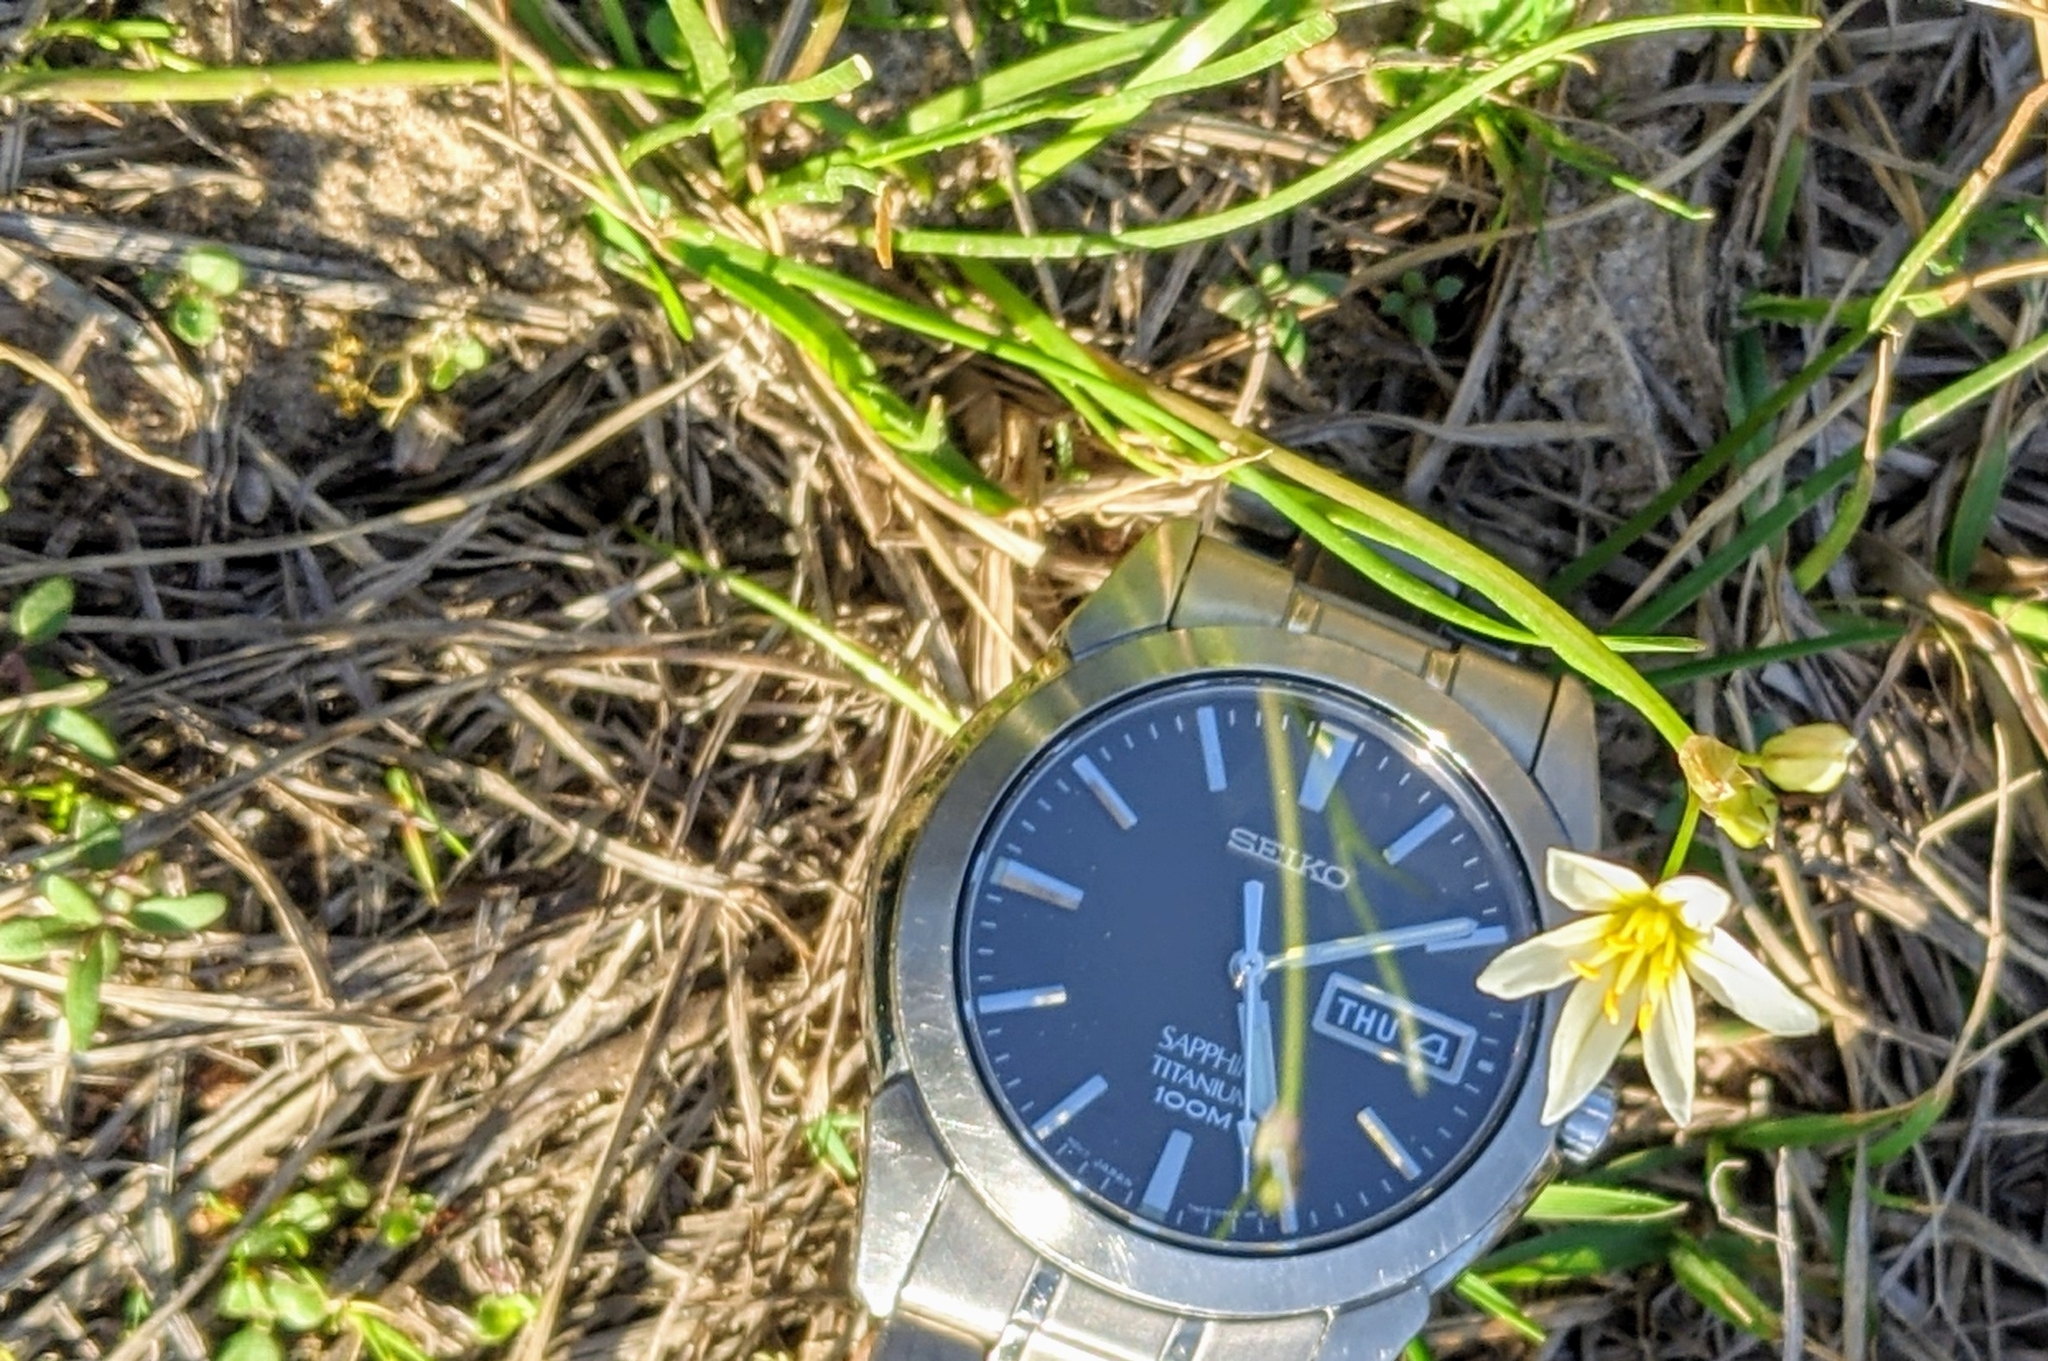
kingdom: Plantae
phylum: Tracheophyta
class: Liliopsida
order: Asparagales
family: Amaryllidaceae
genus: Nothoscordum
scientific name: Nothoscordum bivalve
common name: Crow-poison
